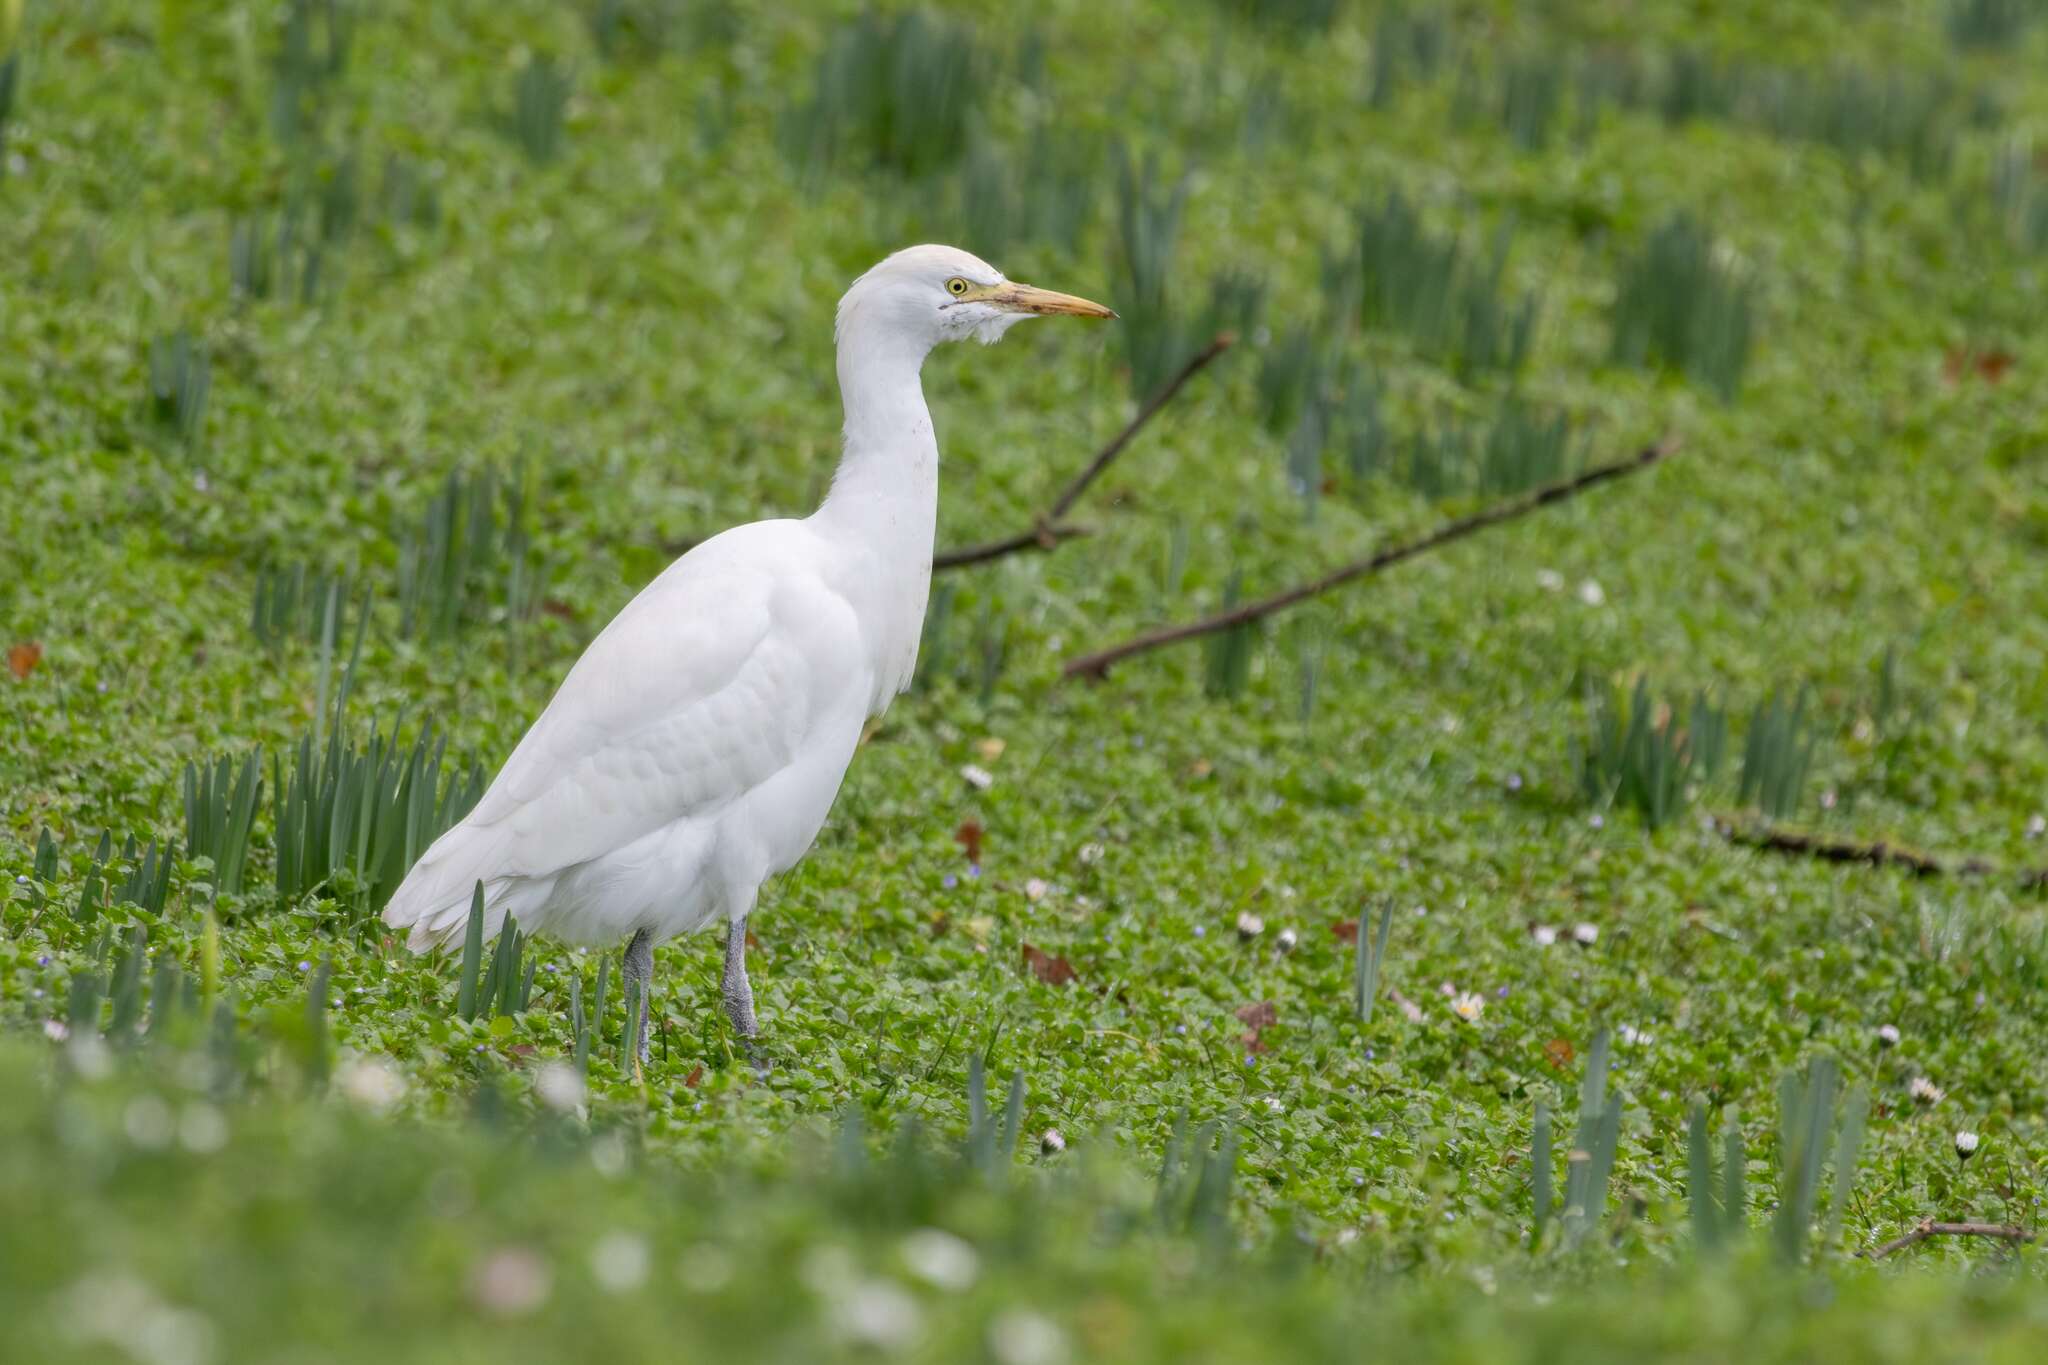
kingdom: Animalia
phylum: Chordata
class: Aves
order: Pelecaniformes
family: Ardeidae
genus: Bubulcus
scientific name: Bubulcus ibis
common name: Cattle egret
